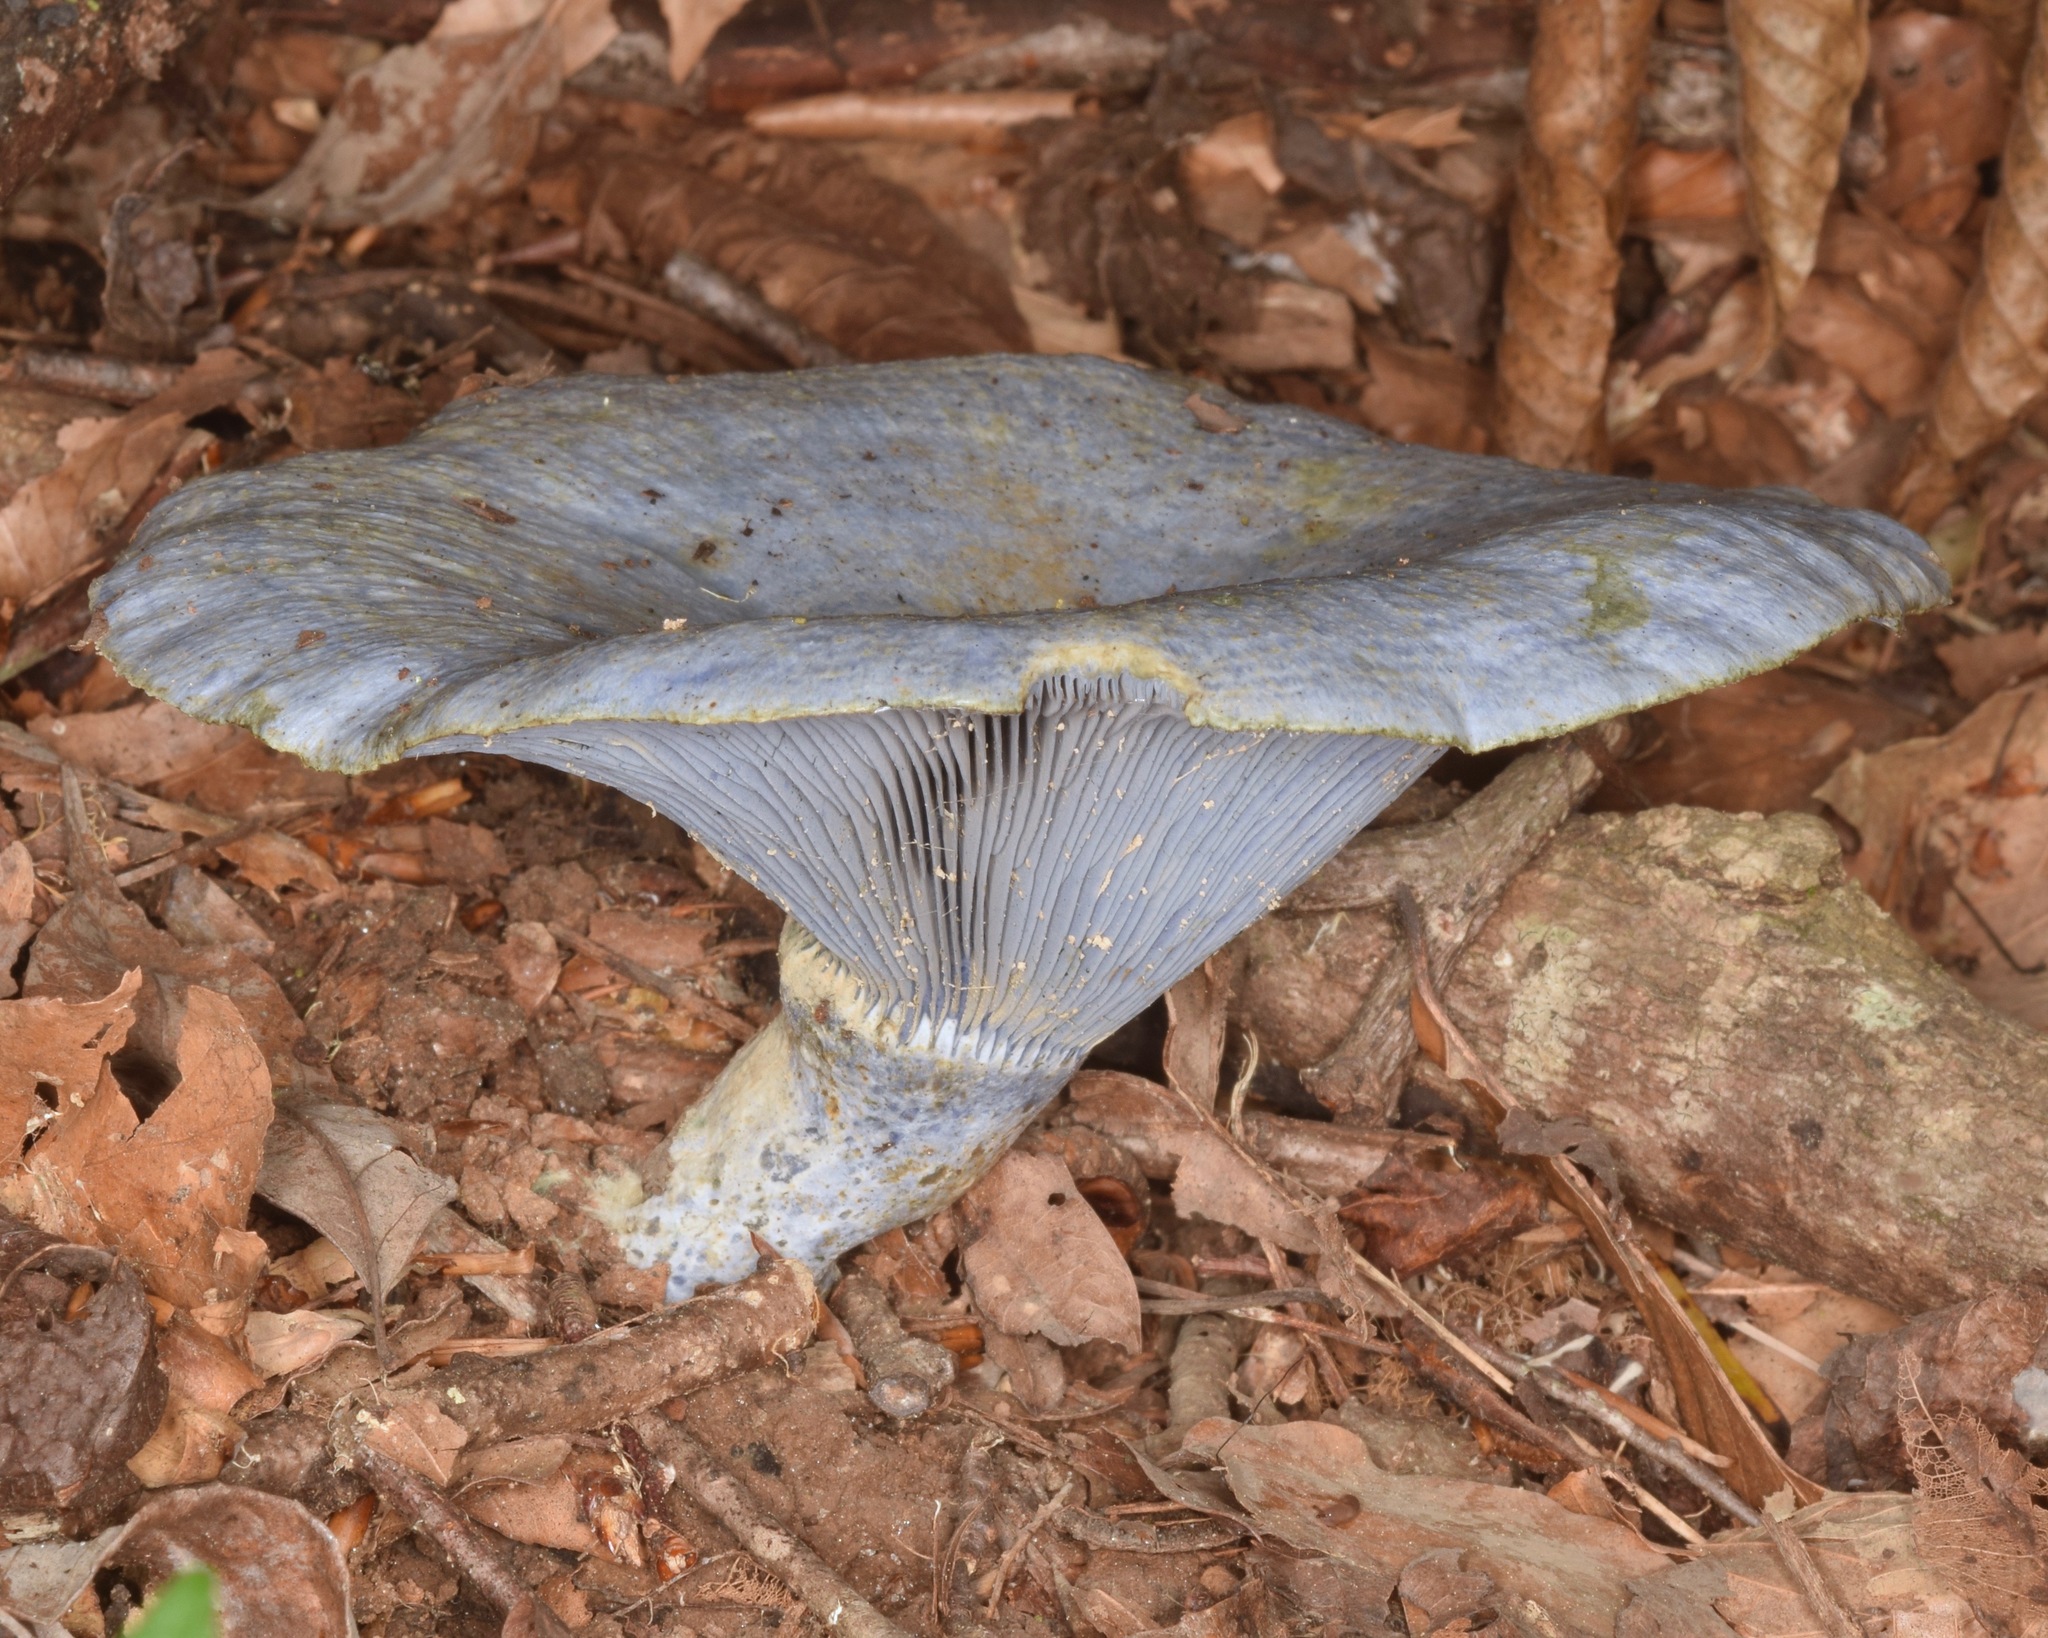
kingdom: Fungi
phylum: Basidiomycota
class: Agaricomycetes
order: Russulales
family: Russulaceae
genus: Lactarius
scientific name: Lactarius indigo
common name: Indigo milk cap
